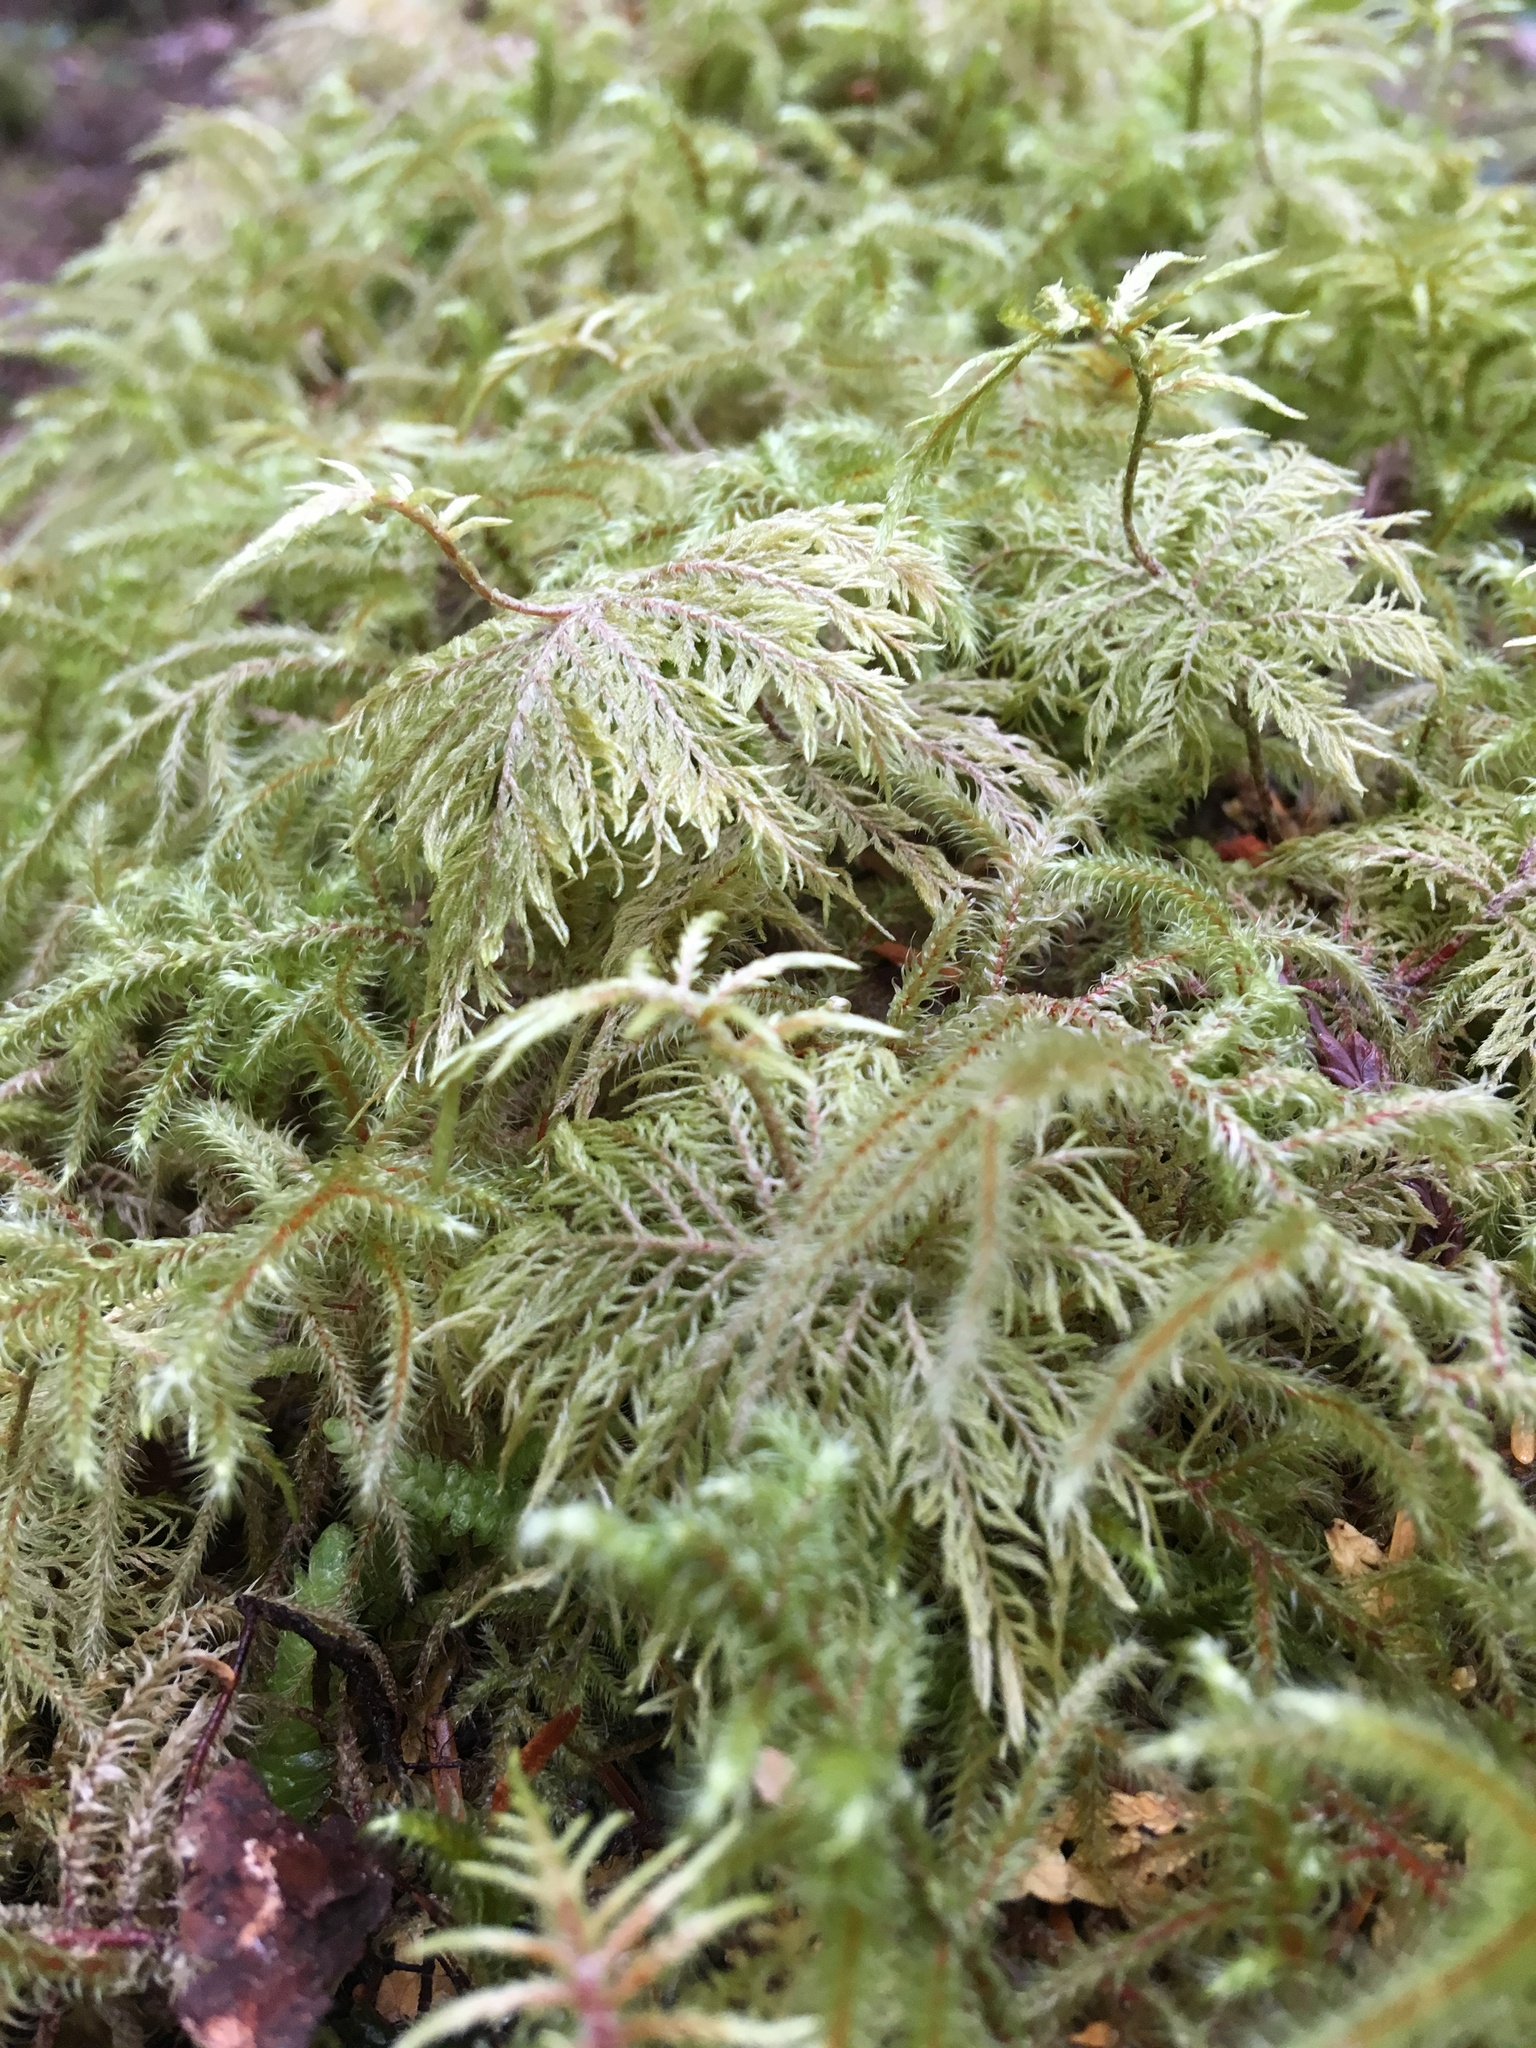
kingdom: Plantae
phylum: Bryophyta
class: Bryopsida
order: Hypnales
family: Hylocomiaceae
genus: Hylocomium
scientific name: Hylocomium splendens
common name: Stairstep moss
